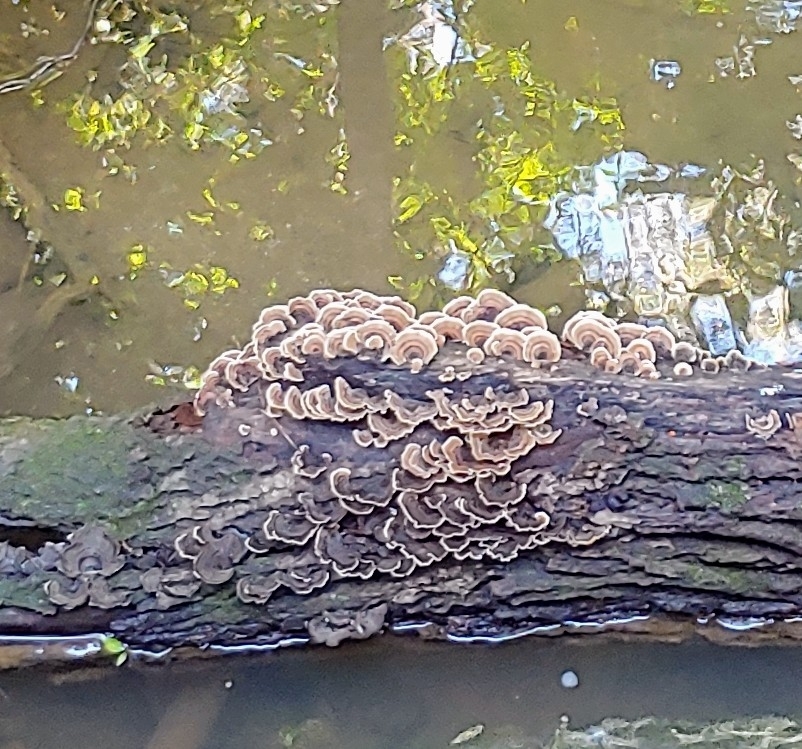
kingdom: Fungi
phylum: Basidiomycota
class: Agaricomycetes
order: Polyporales
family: Polyporaceae
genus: Trametes
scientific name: Trametes versicolor
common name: Turkeytail
